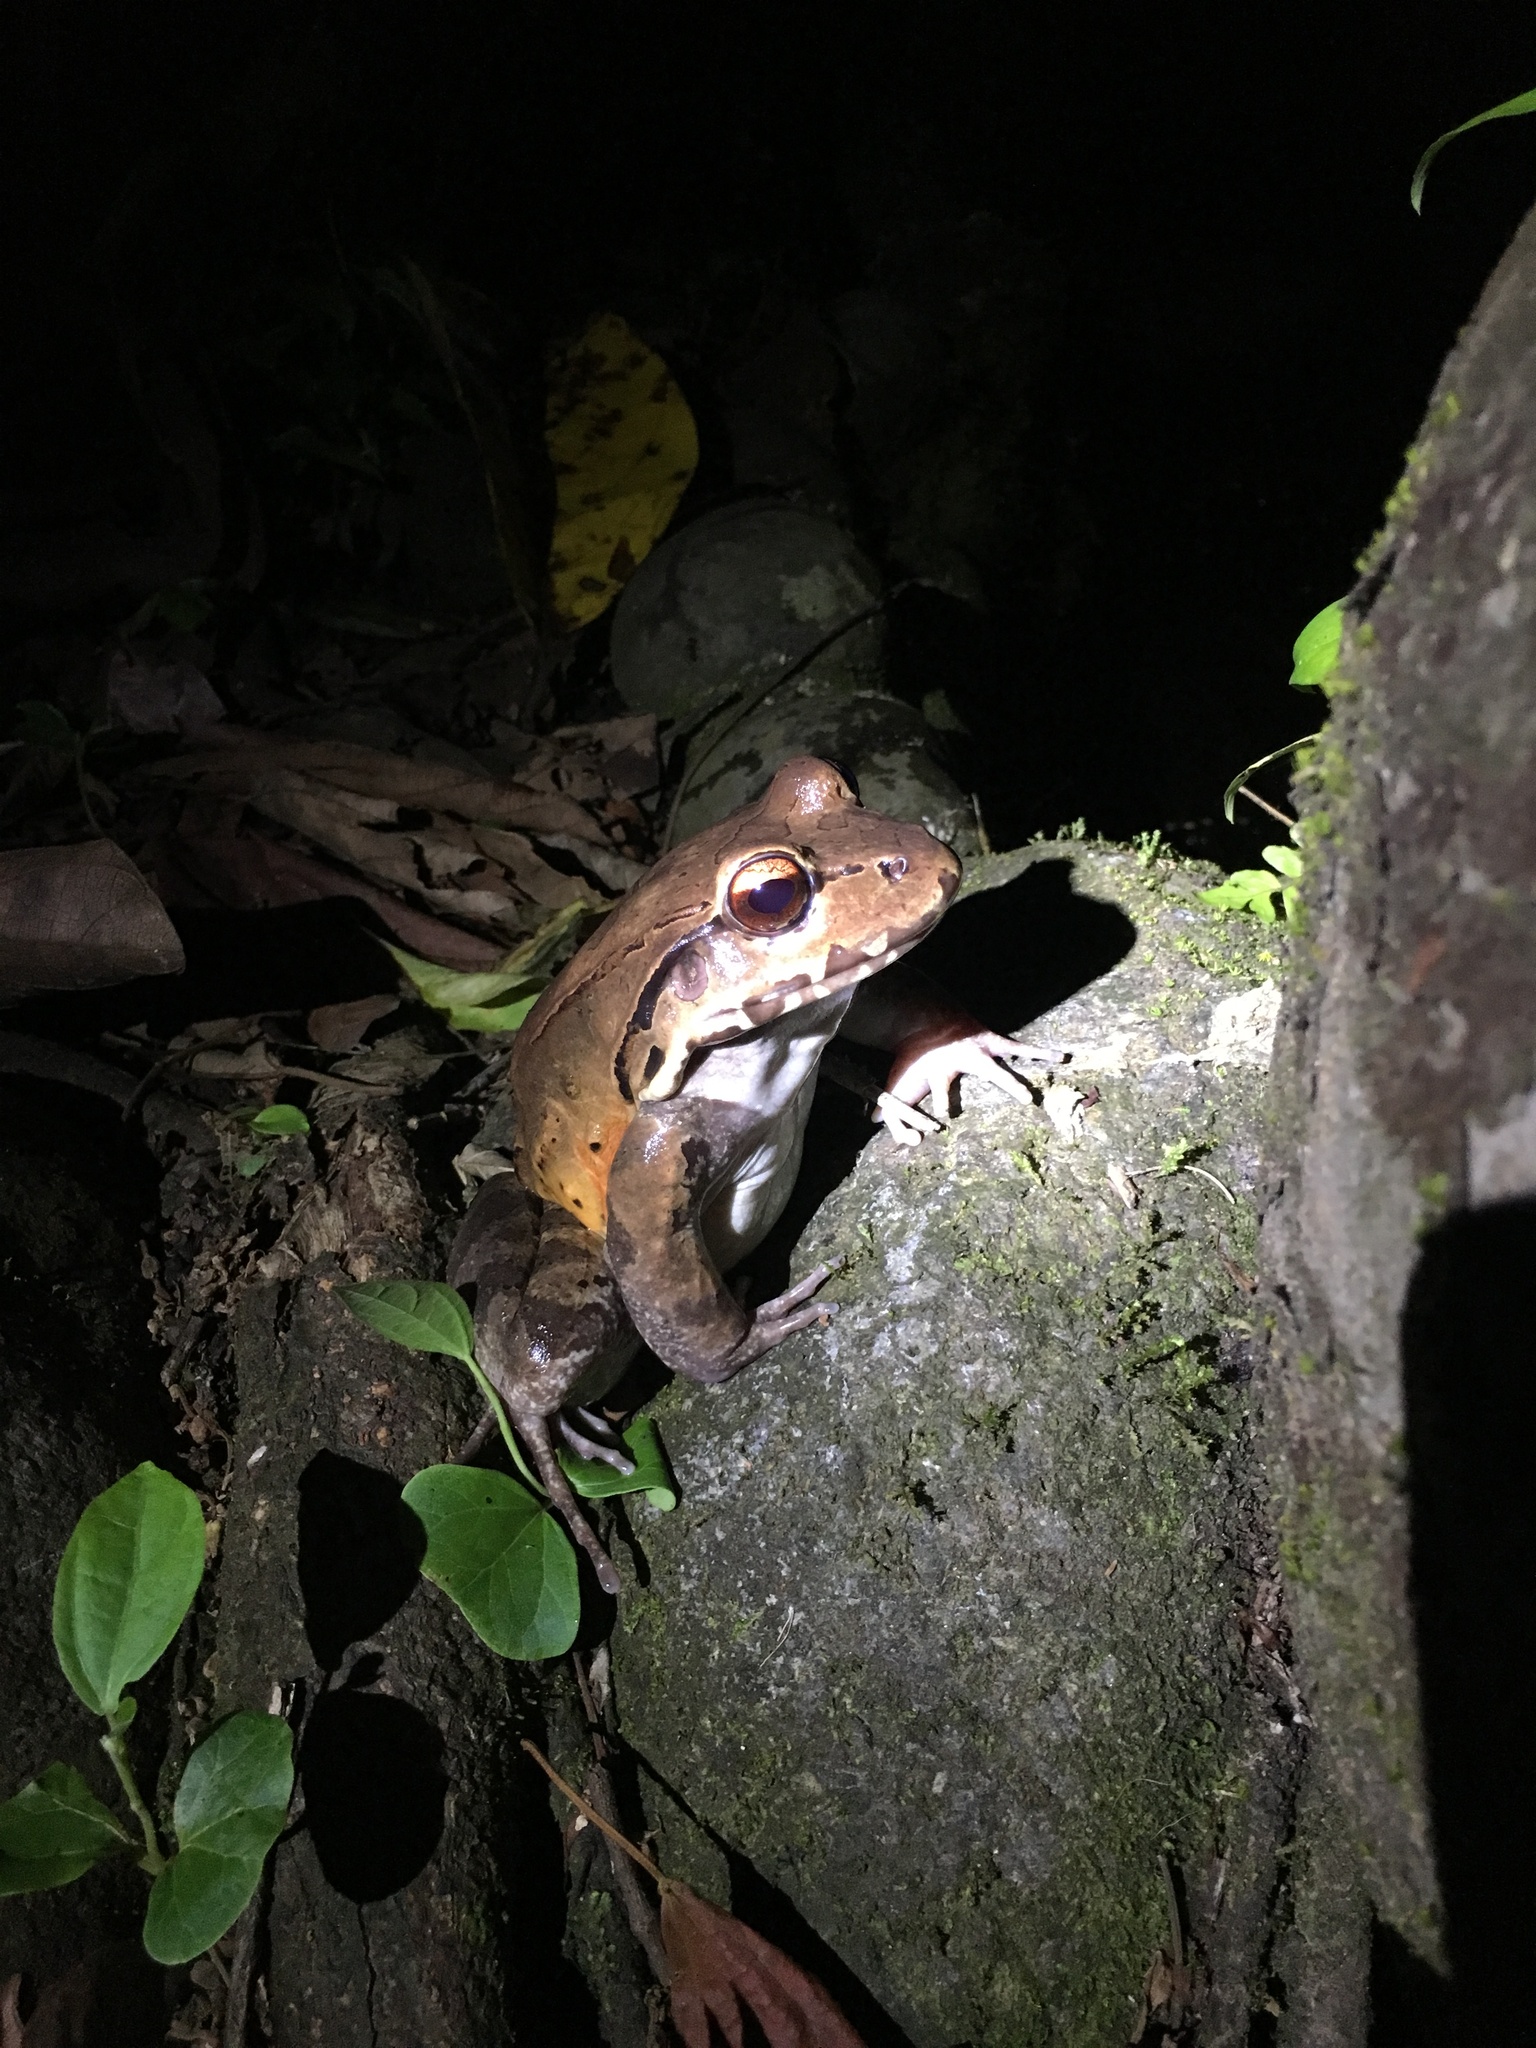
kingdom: Animalia
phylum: Chordata
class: Amphibia
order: Anura
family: Leptodactylidae
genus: Leptodactylus
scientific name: Leptodactylus savagei
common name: Savage's thin-toed frog
